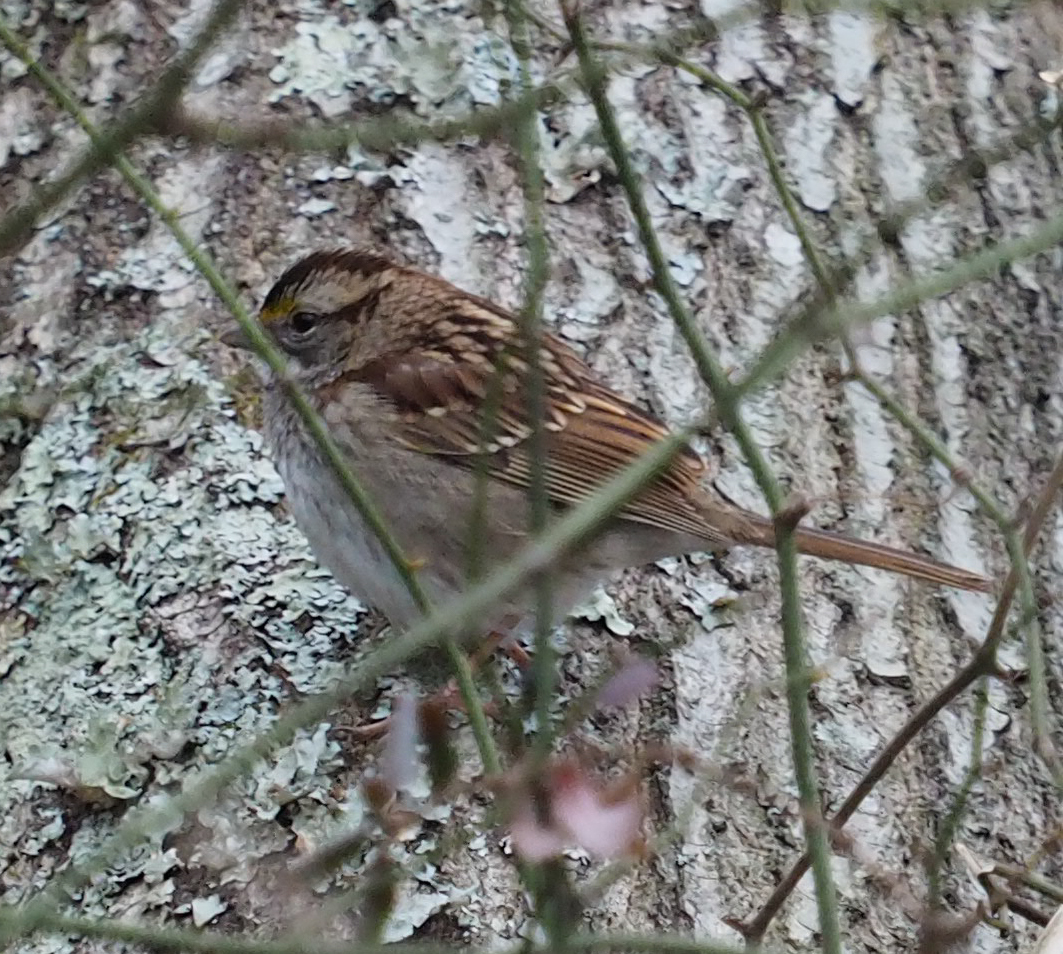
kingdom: Animalia
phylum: Chordata
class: Aves
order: Passeriformes
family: Passerellidae
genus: Zonotrichia
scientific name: Zonotrichia albicollis
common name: White-throated sparrow
